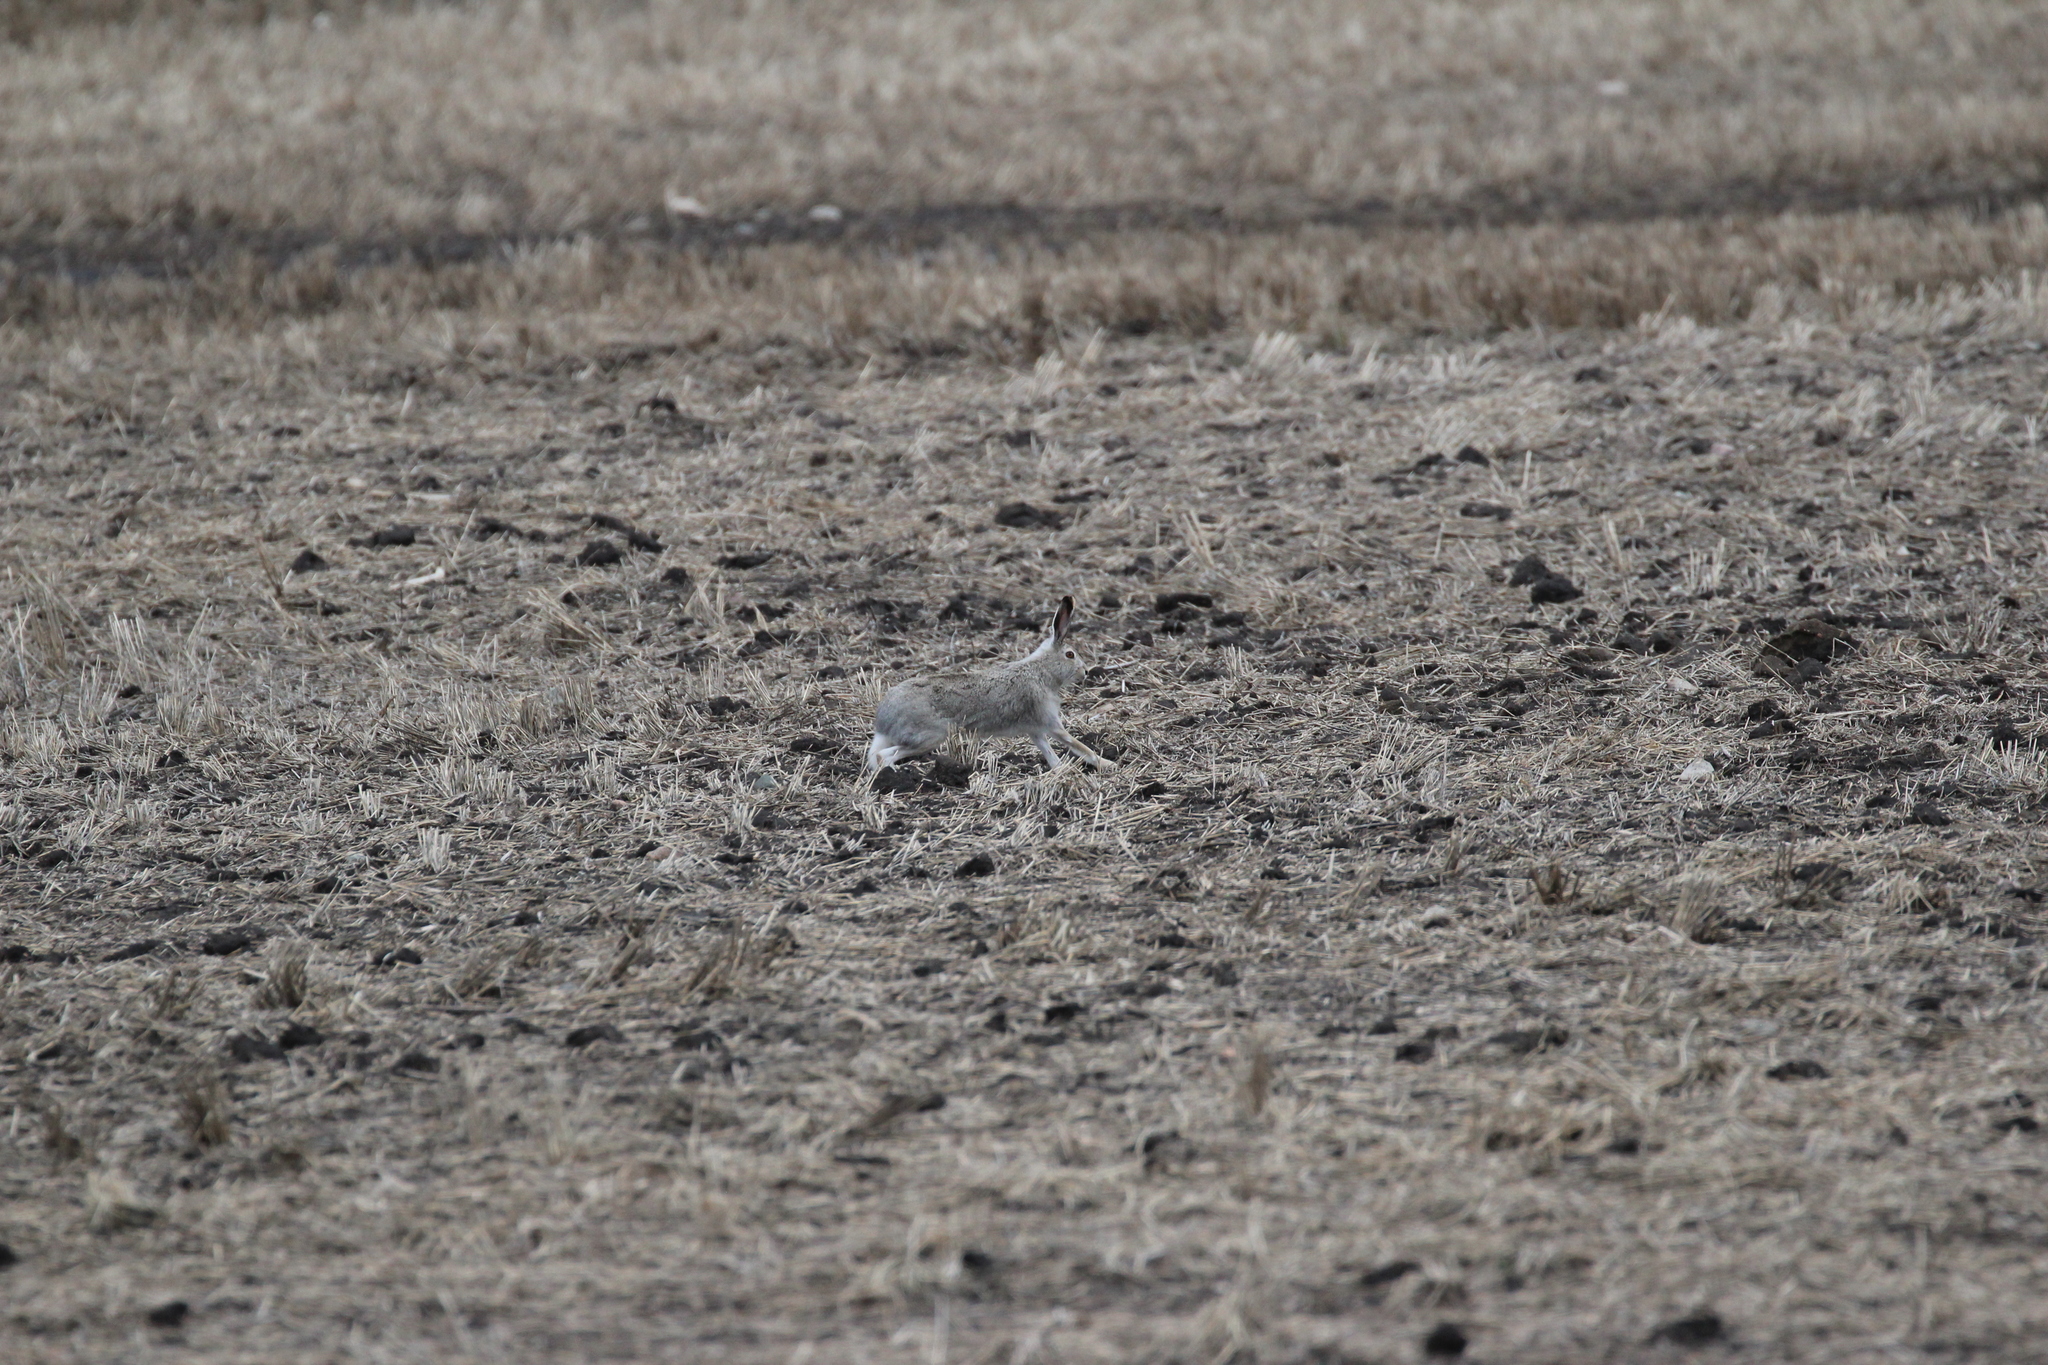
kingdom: Animalia
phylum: Chordata
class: Mammalia
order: Lagomorpha
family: Leporidae
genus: Lepus
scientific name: Lepus townsendii
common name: White-tailed jackrabbit
